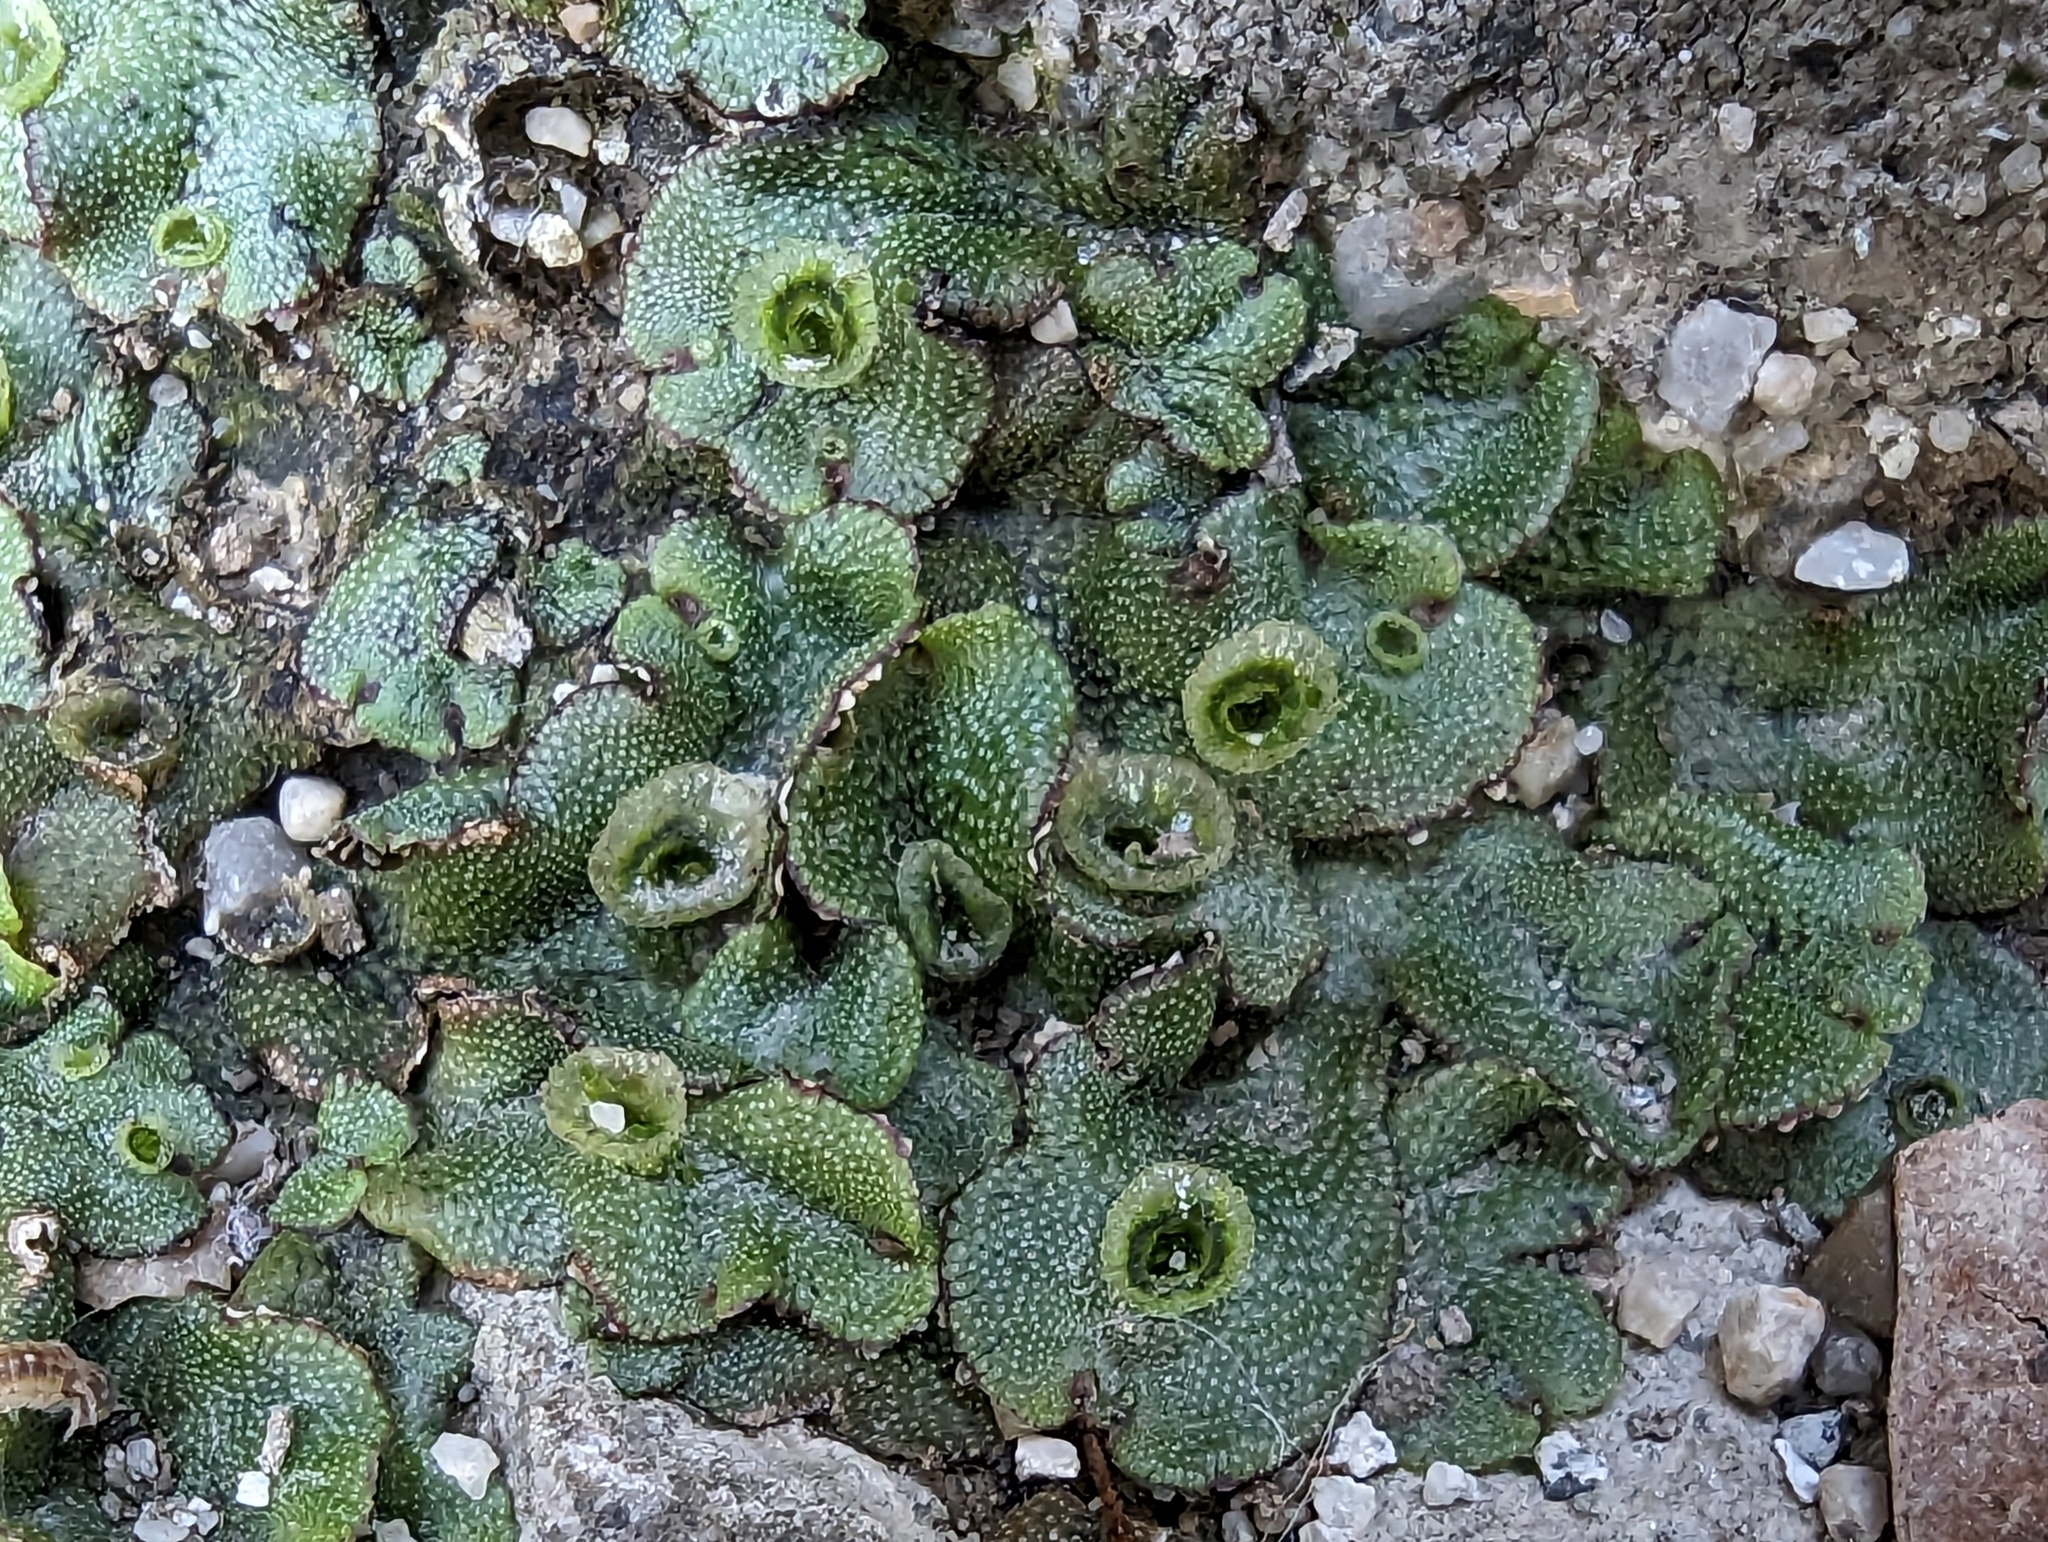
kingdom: Plantae
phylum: Marchantiophyta
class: Marchantiopsida
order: Marchantiales
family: Marchantiaceae
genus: Marchantia
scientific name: Marchantia polymorpha
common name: Common liverwort
